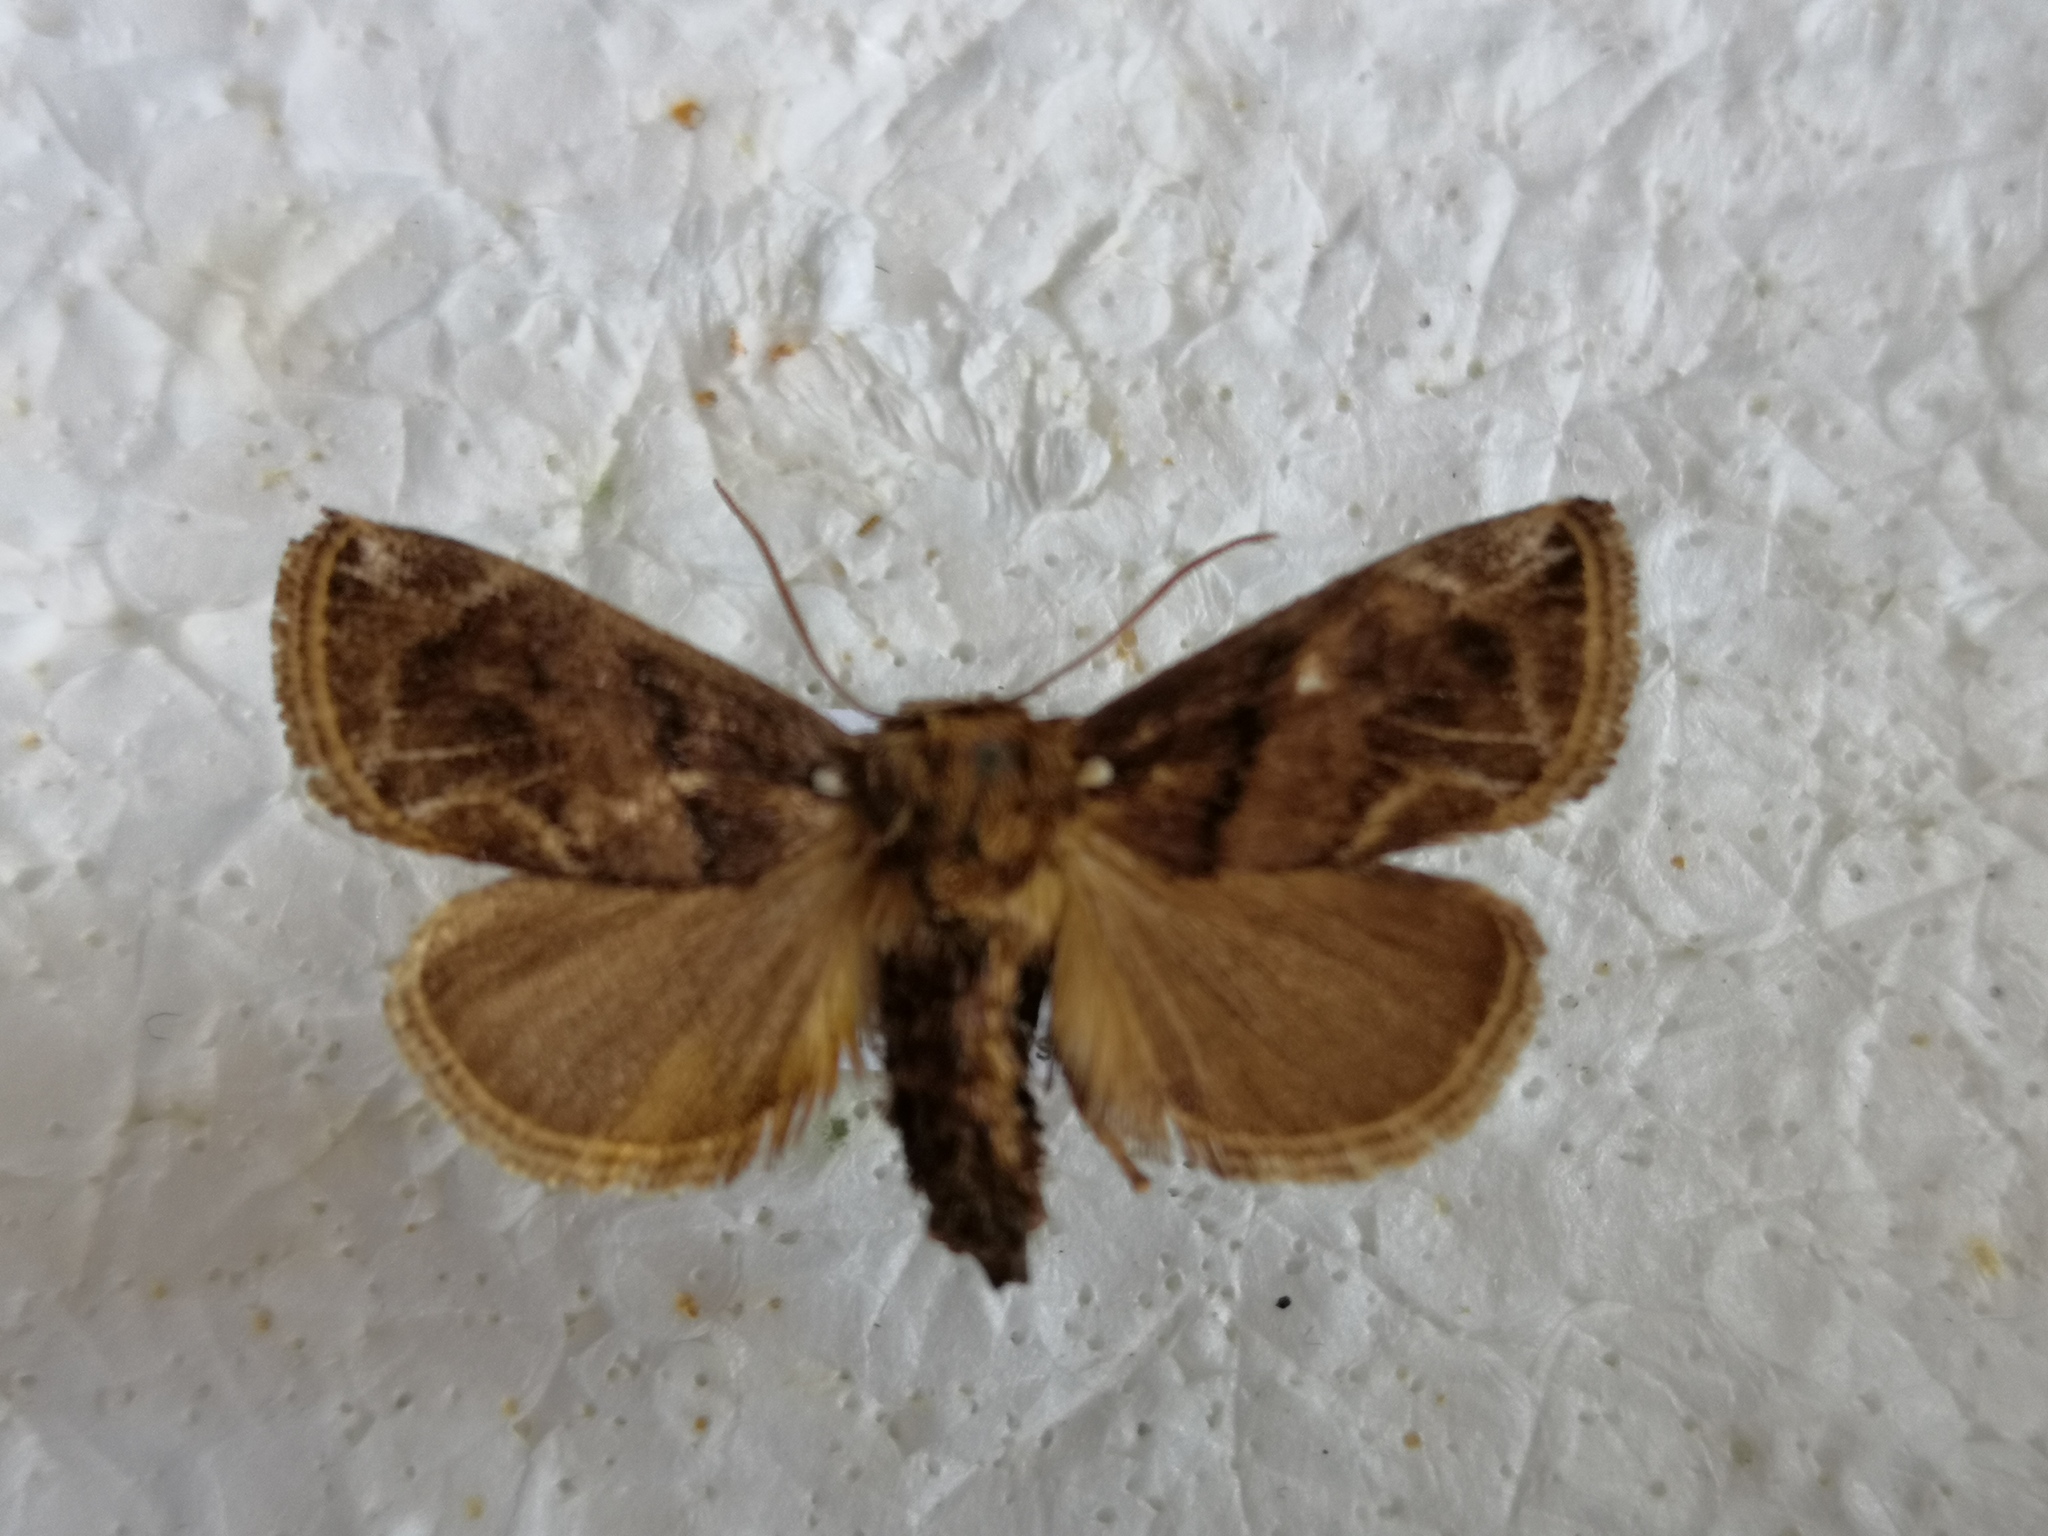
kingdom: Animalia
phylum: Arthropoda
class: Insecta
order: Lepidoptera
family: Limacodidae
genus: Austrapoda
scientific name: Austrapoda dentatus
